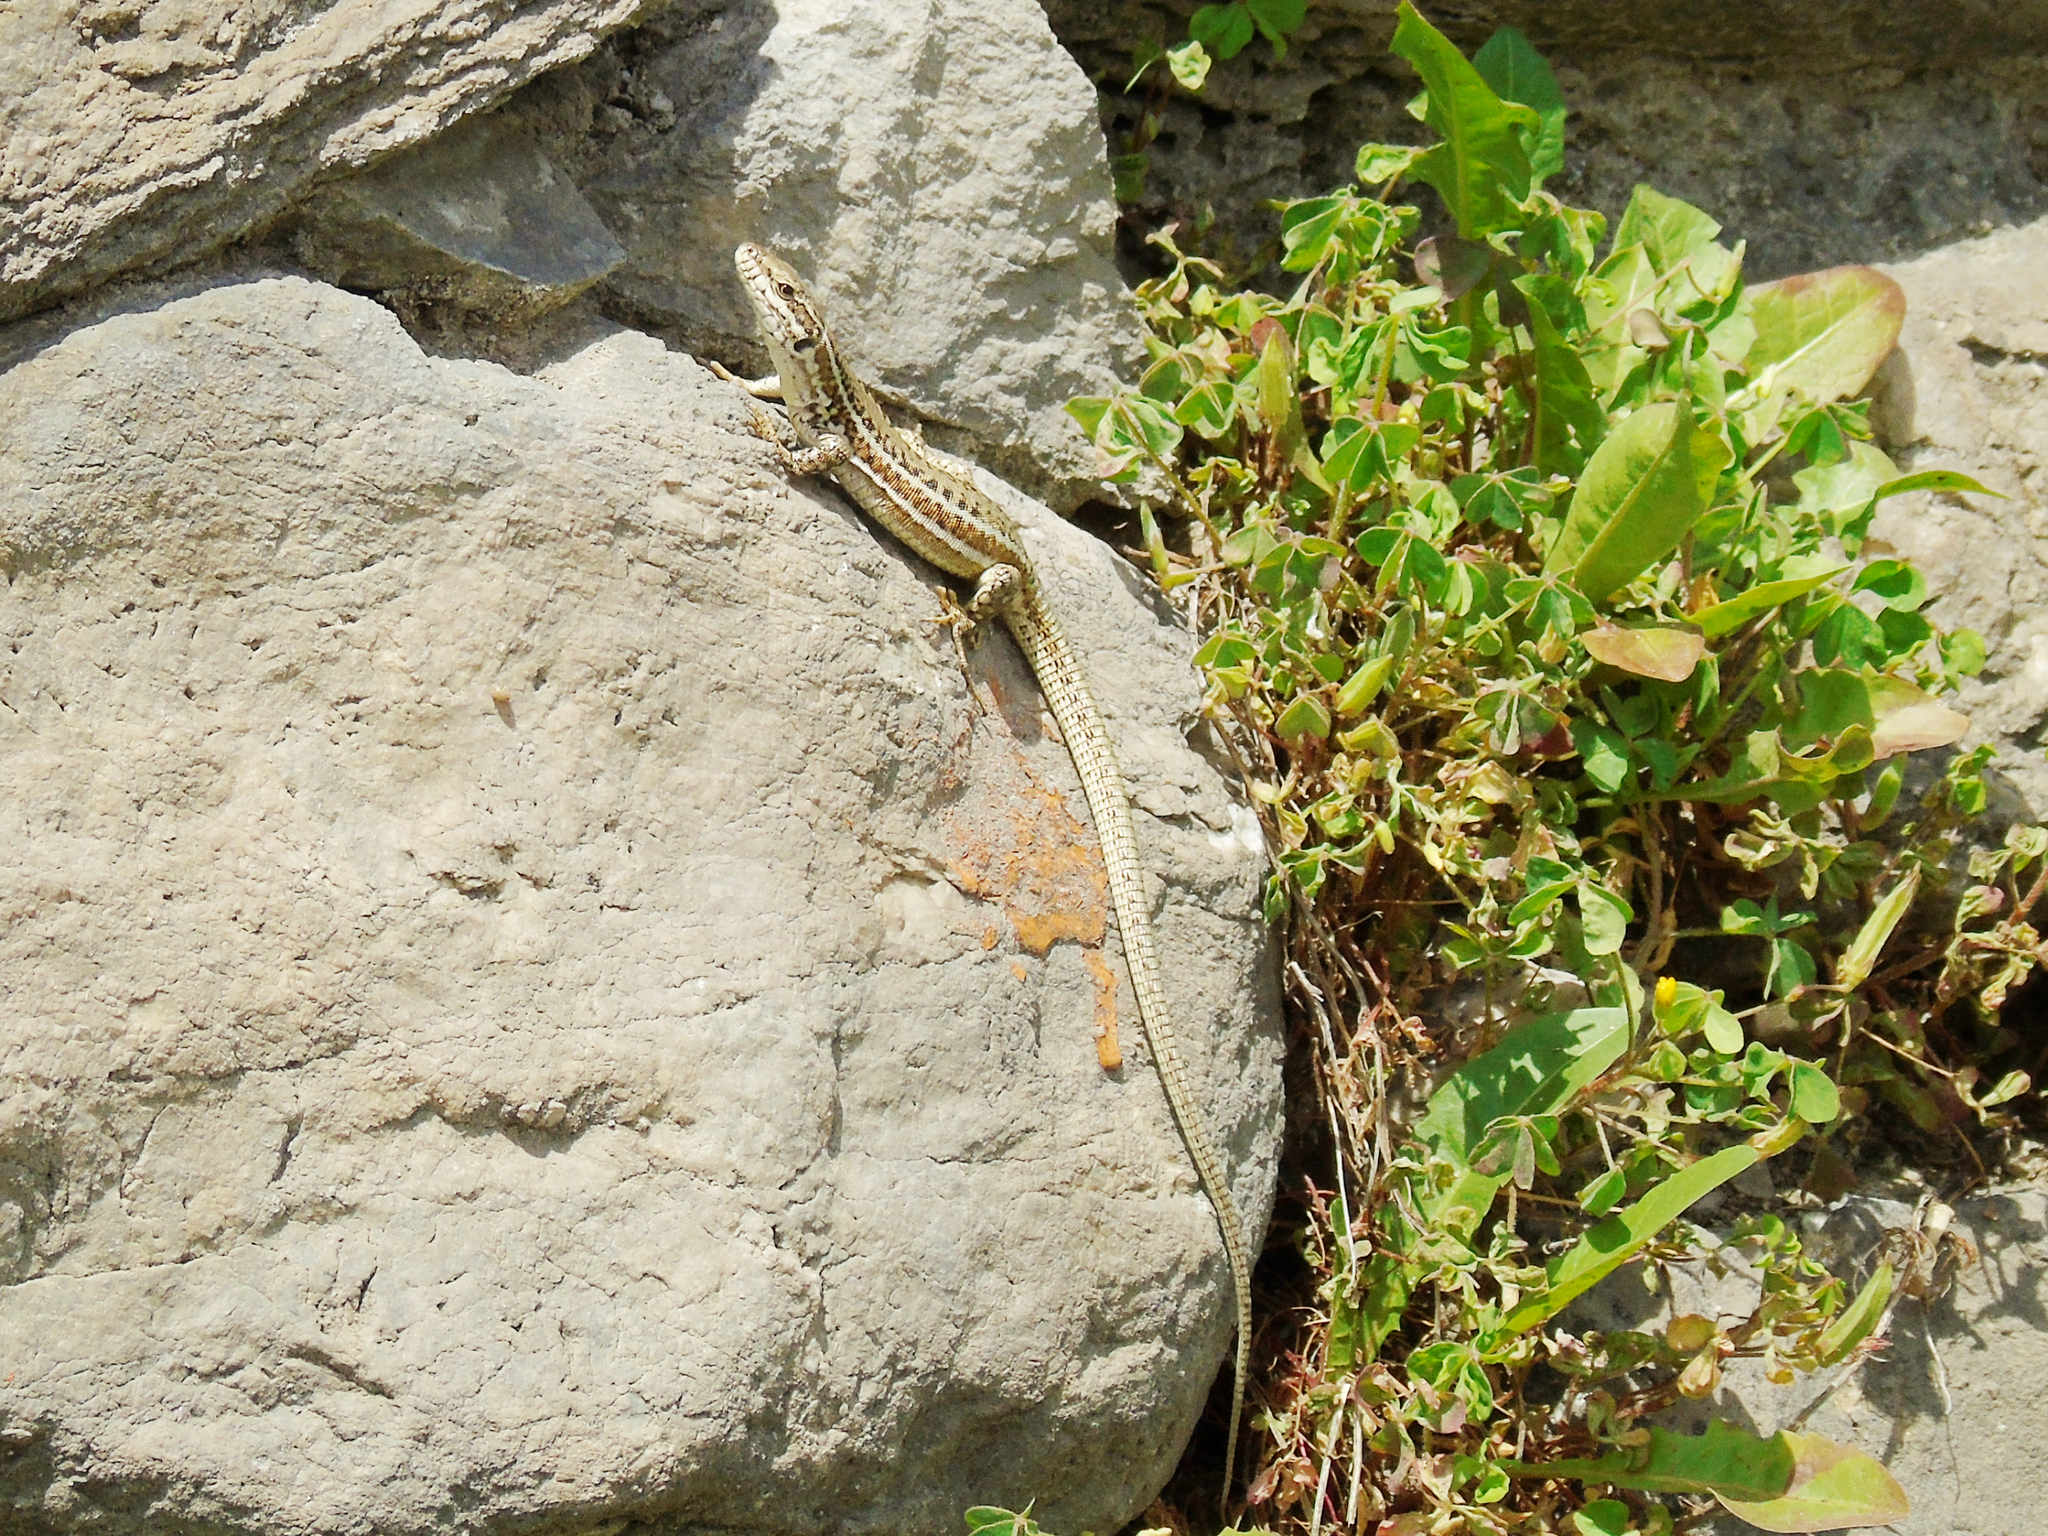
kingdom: Animalia
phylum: Chordata
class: Squamata
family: Lacertidae
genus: Podarcis
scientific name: Podarcis erhardii
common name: Erhard's wall lizard
